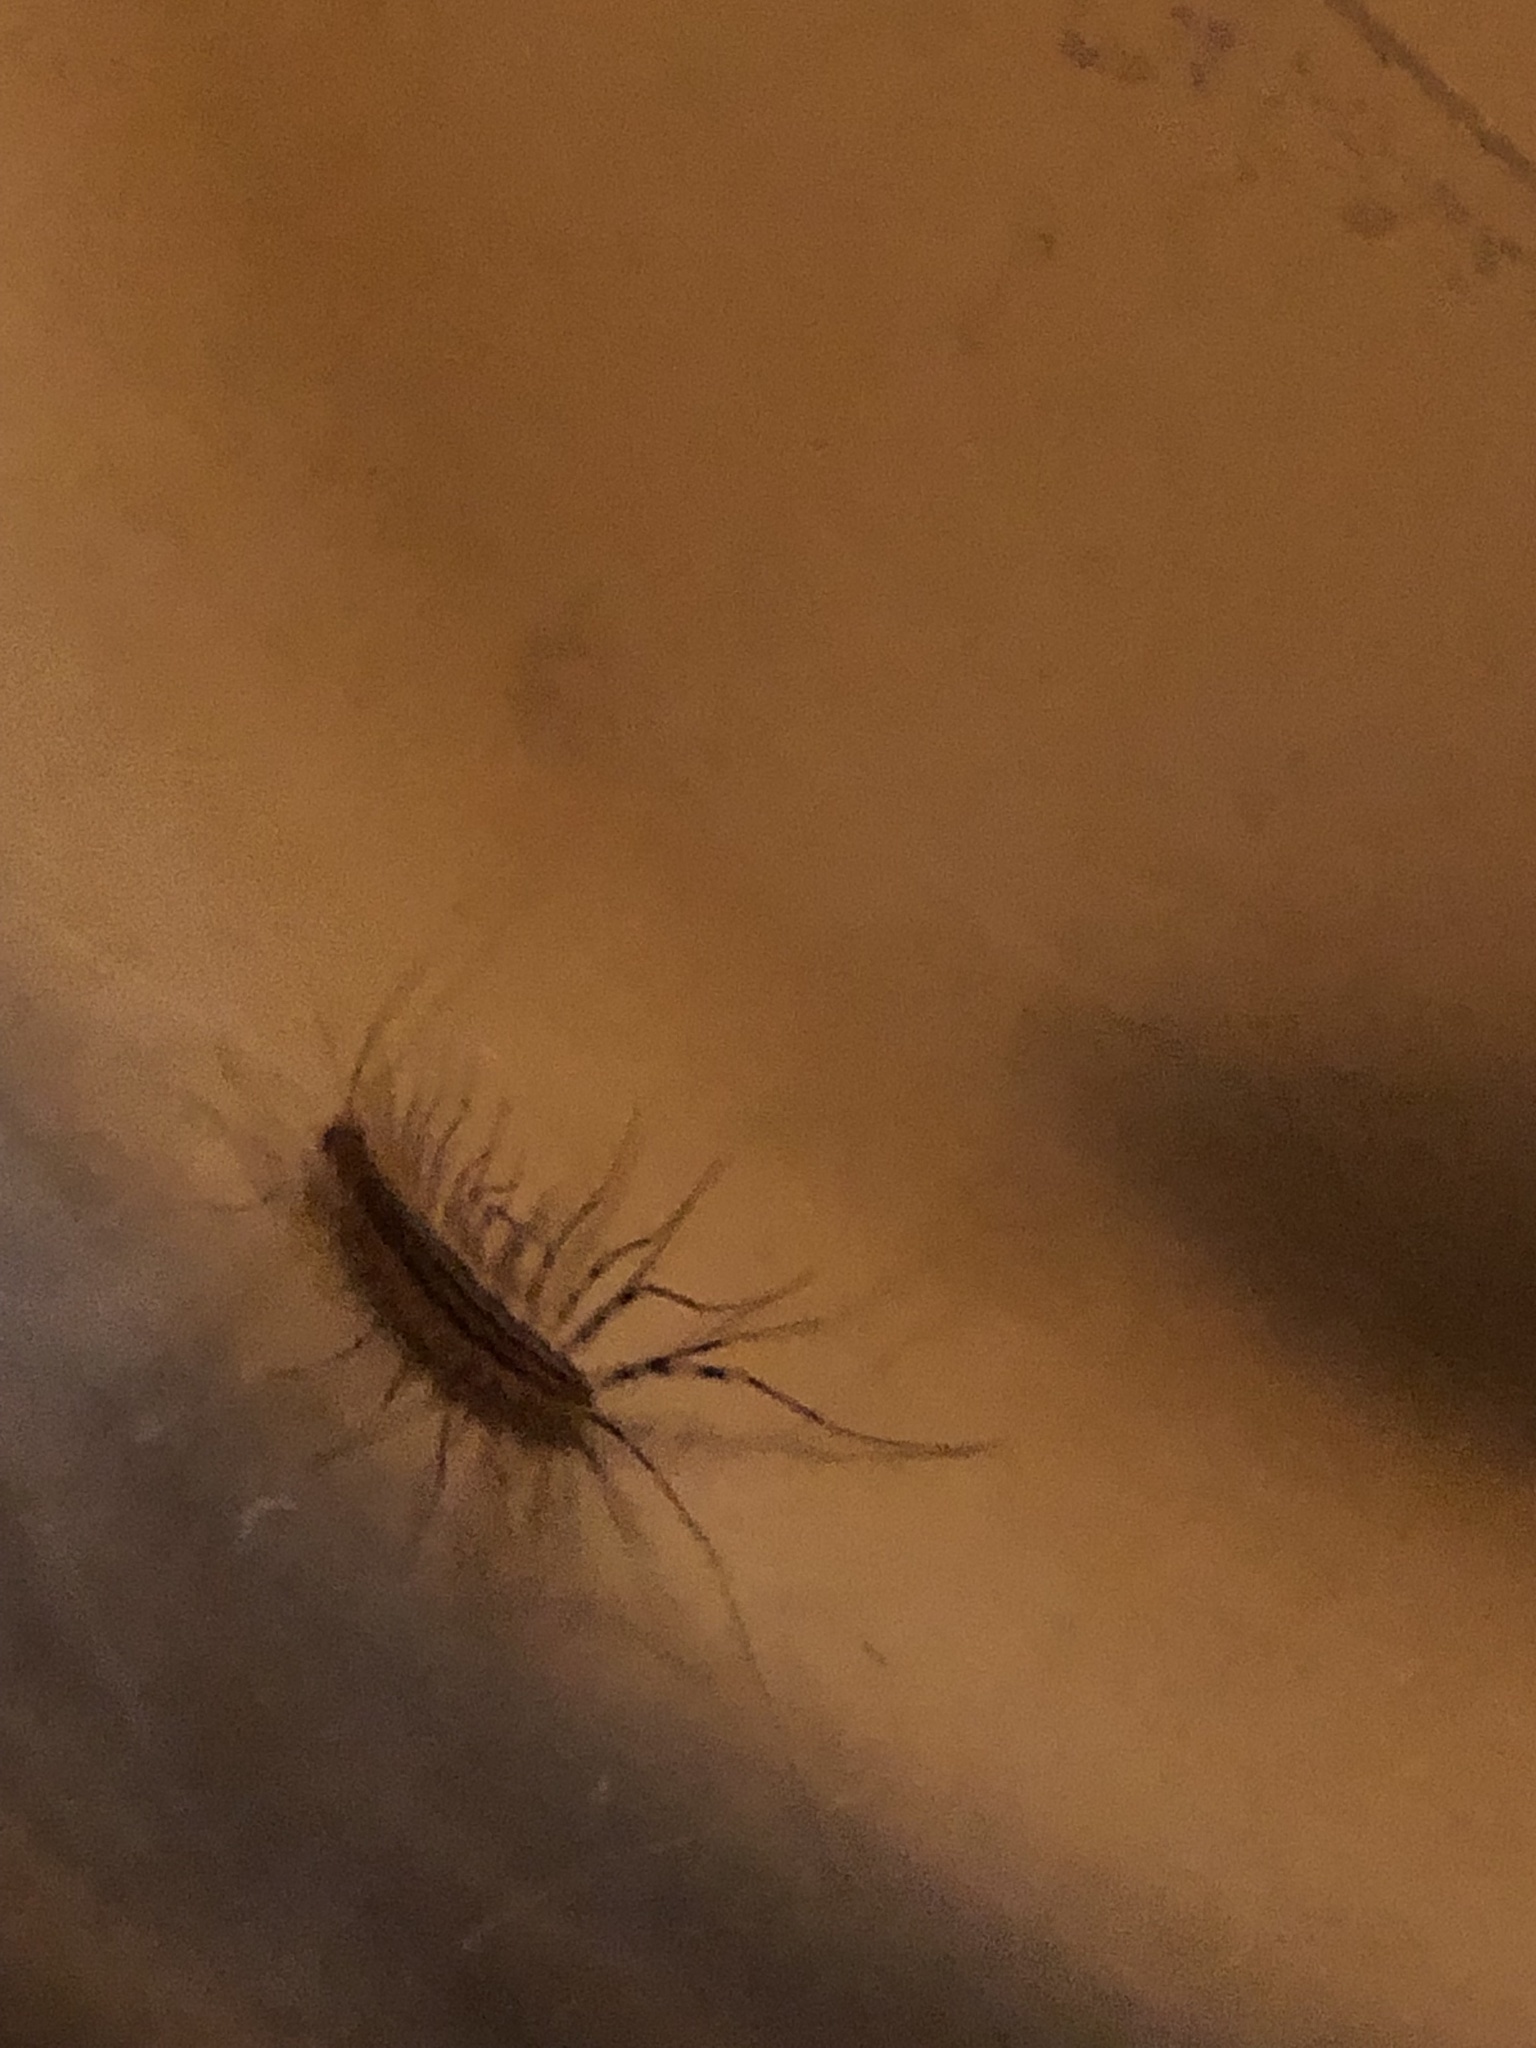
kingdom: Animalia
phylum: Arthropoda
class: Chilopoda
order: Scutigeromorpha
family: Scutigeridae
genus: Scutigera
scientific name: Scutigera coleoptrata
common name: House centipede
